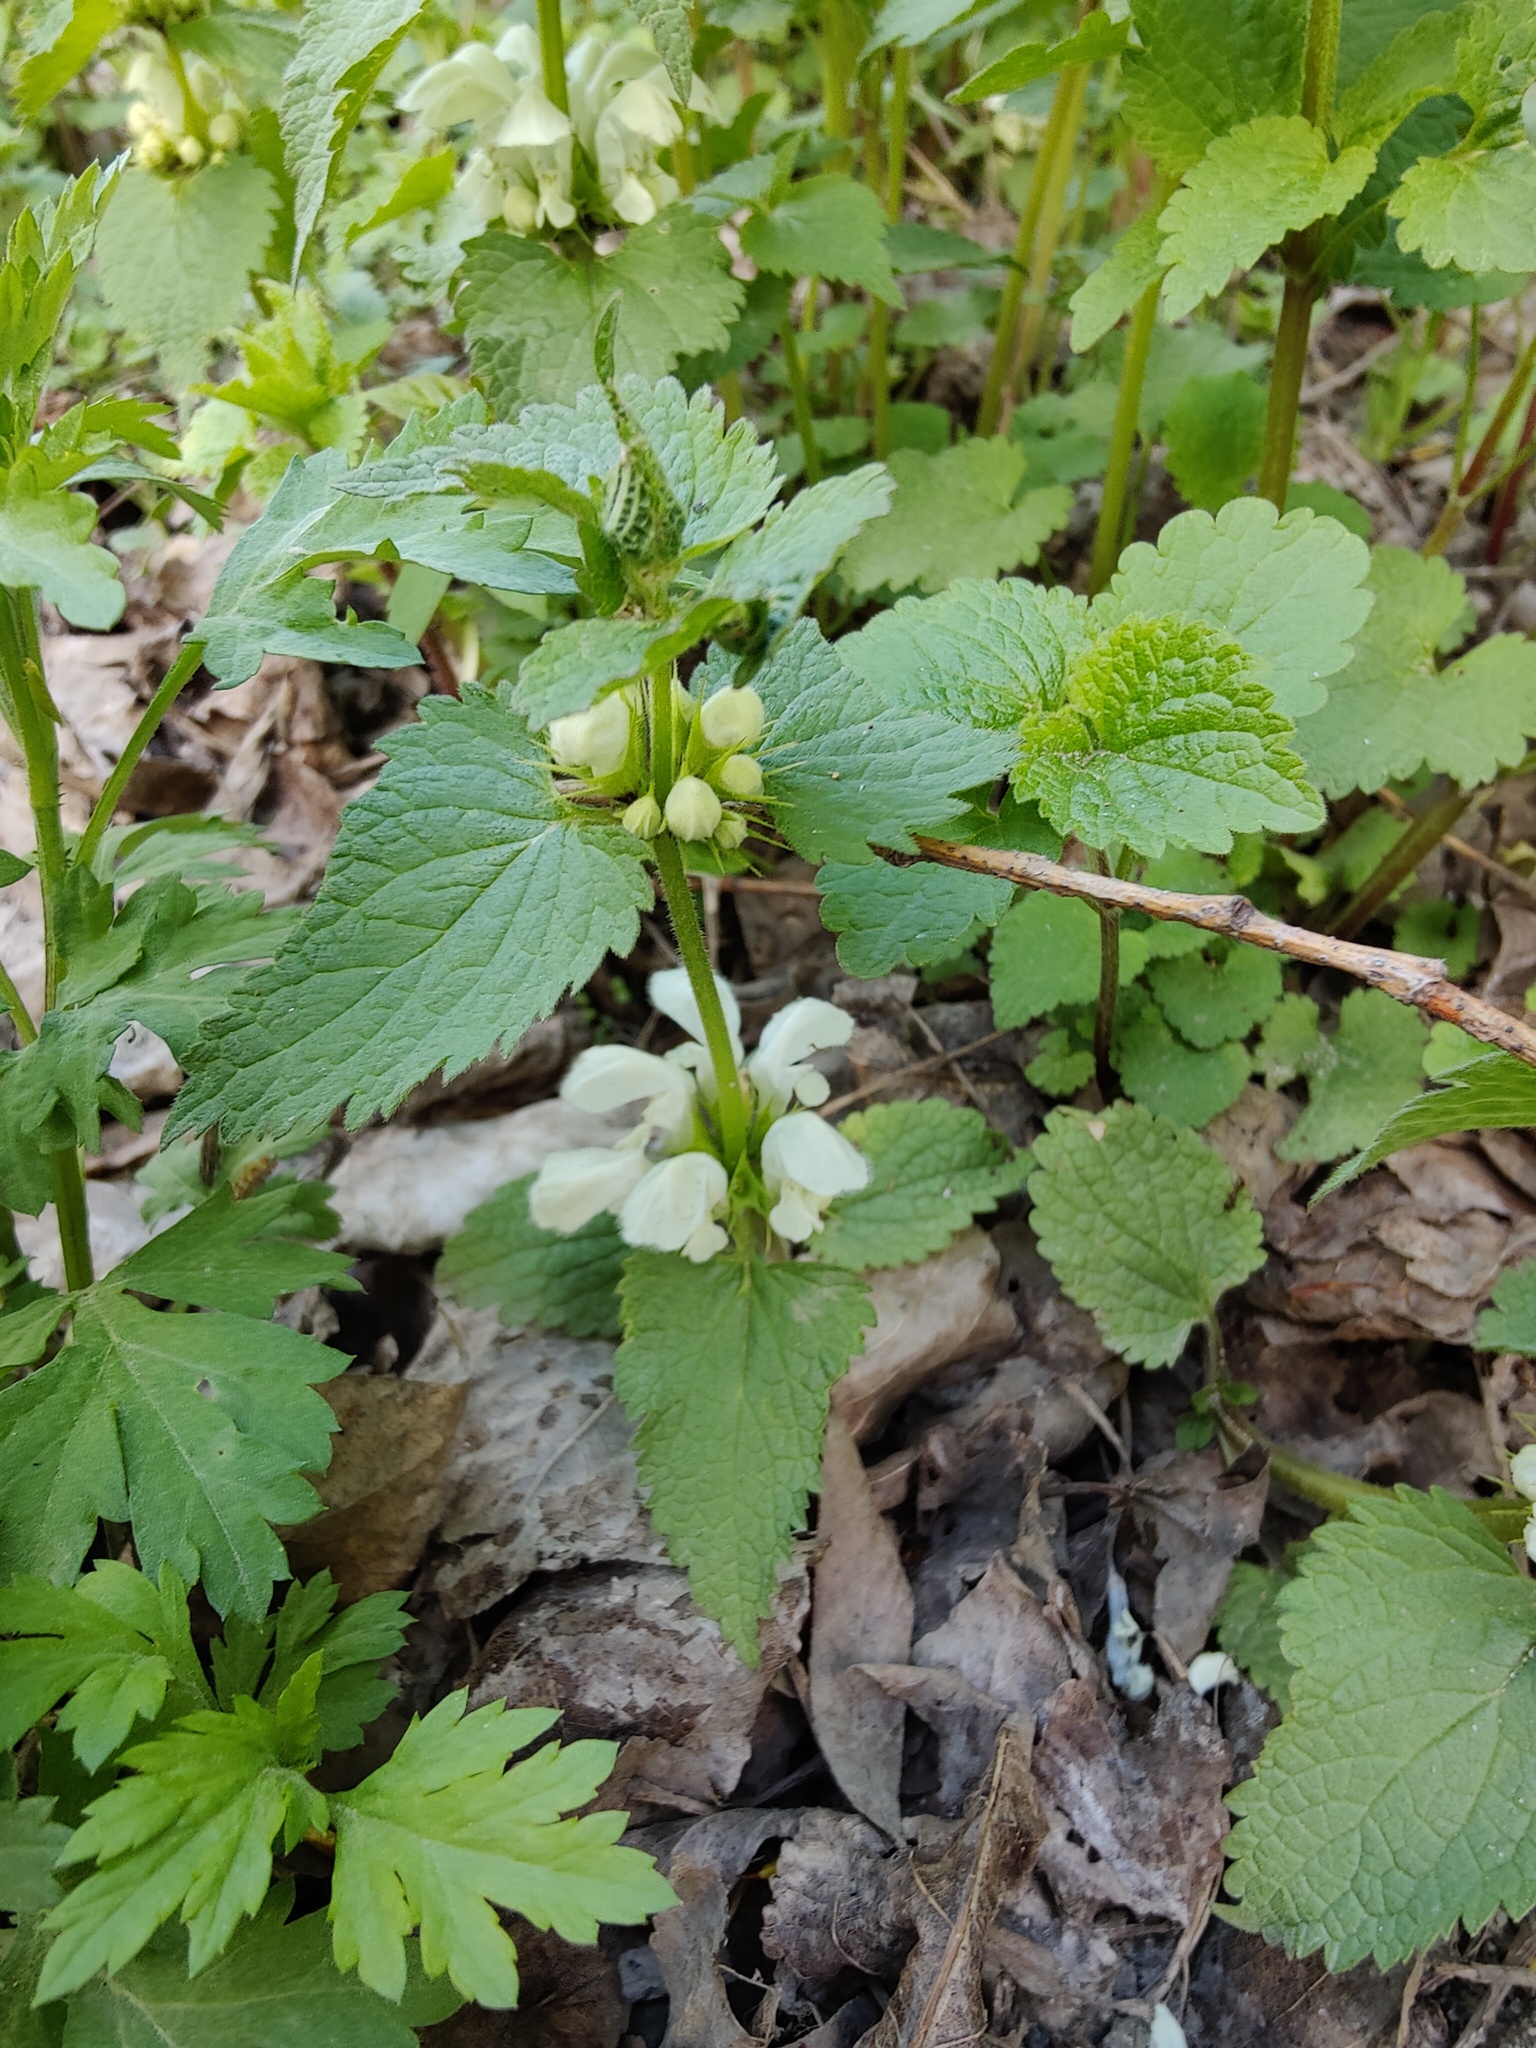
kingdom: Plantae
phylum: Tracheophyta
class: Magnoliopsida
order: Lamiales
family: Lamiaceae
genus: Lamium
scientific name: Lamium album
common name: White dead-nettle
